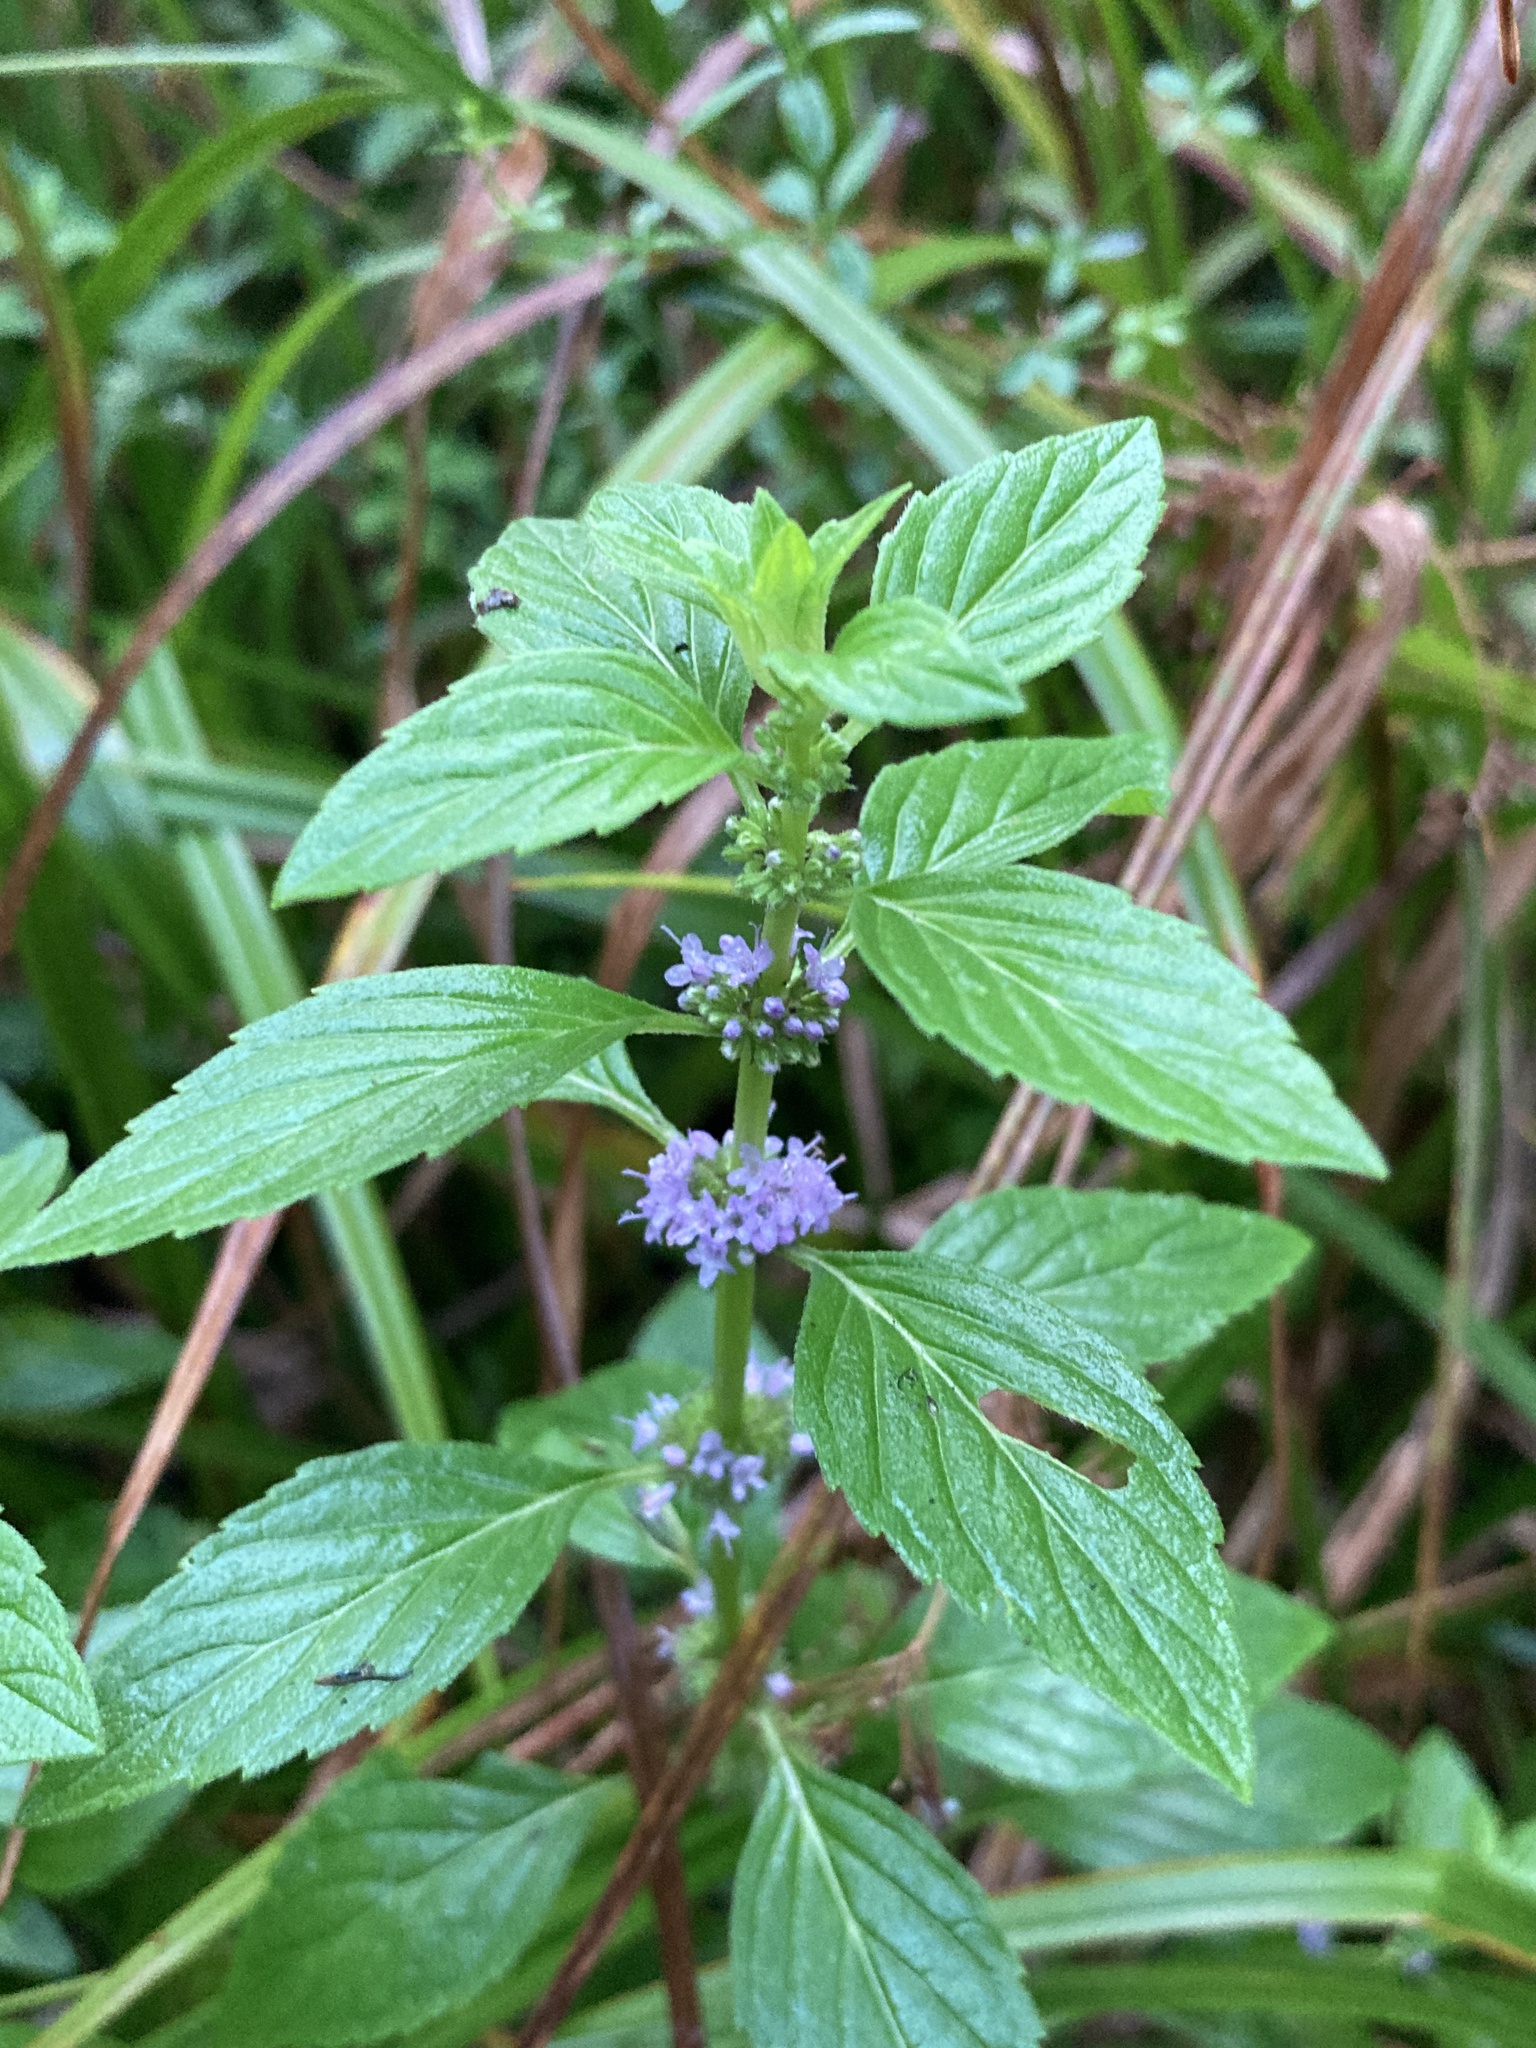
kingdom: Plantae
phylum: Tracheophyta
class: Magnoliopsida
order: Lamiales
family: Lamiaceae
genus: Mentha
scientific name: Mentha arvensis
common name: Corn mint
